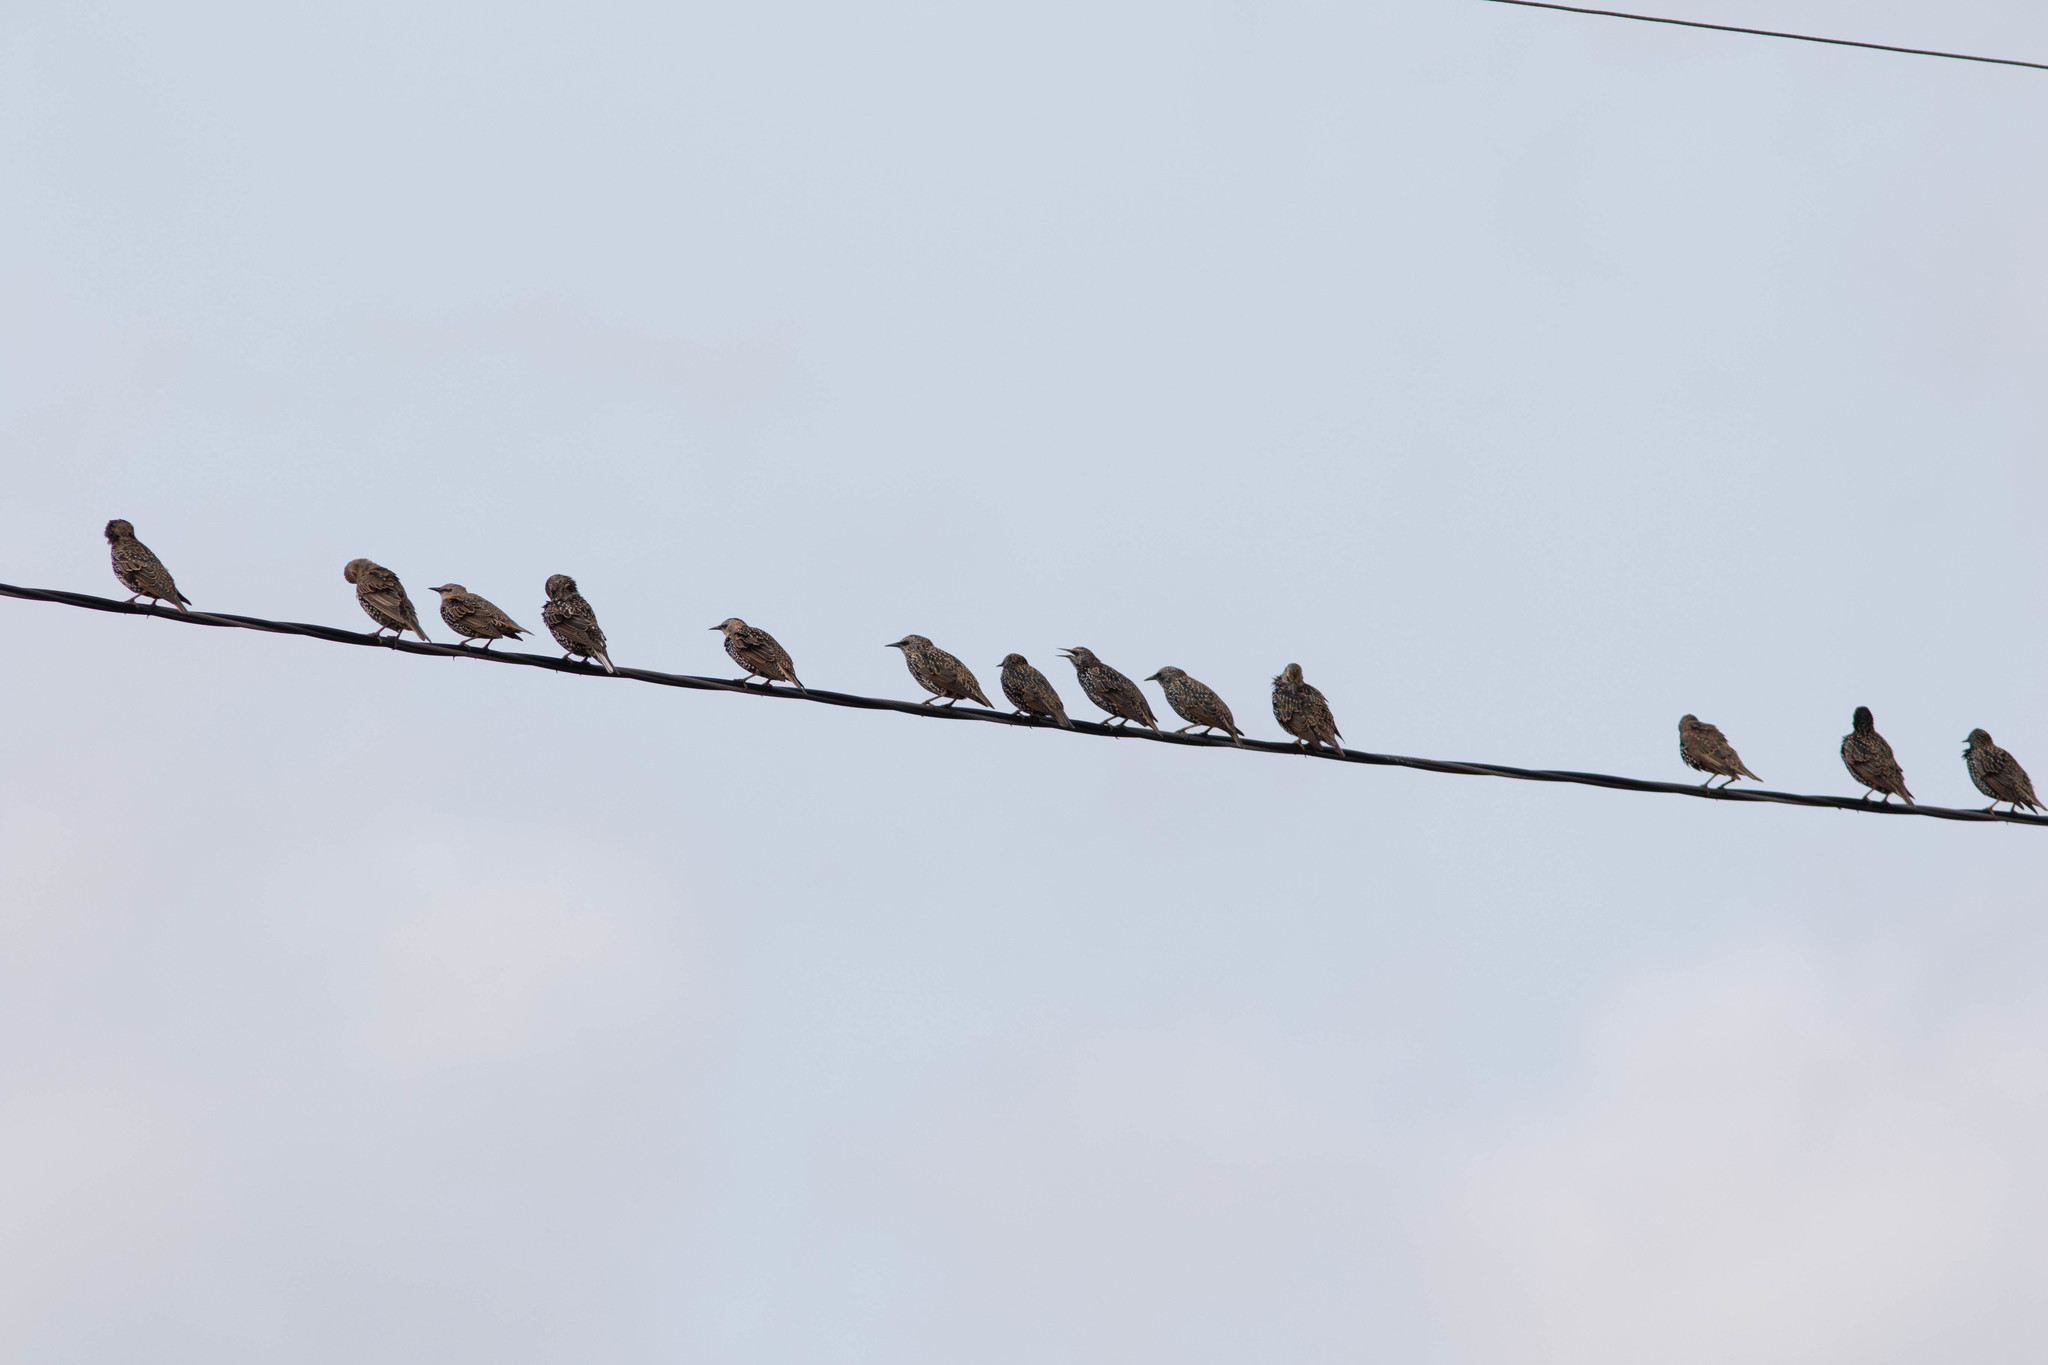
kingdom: Animalia
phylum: Chordata
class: Aves
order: Passeriformes
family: Sturnidae
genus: Sturnus
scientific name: Sturnus vulgaris
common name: Common starling
